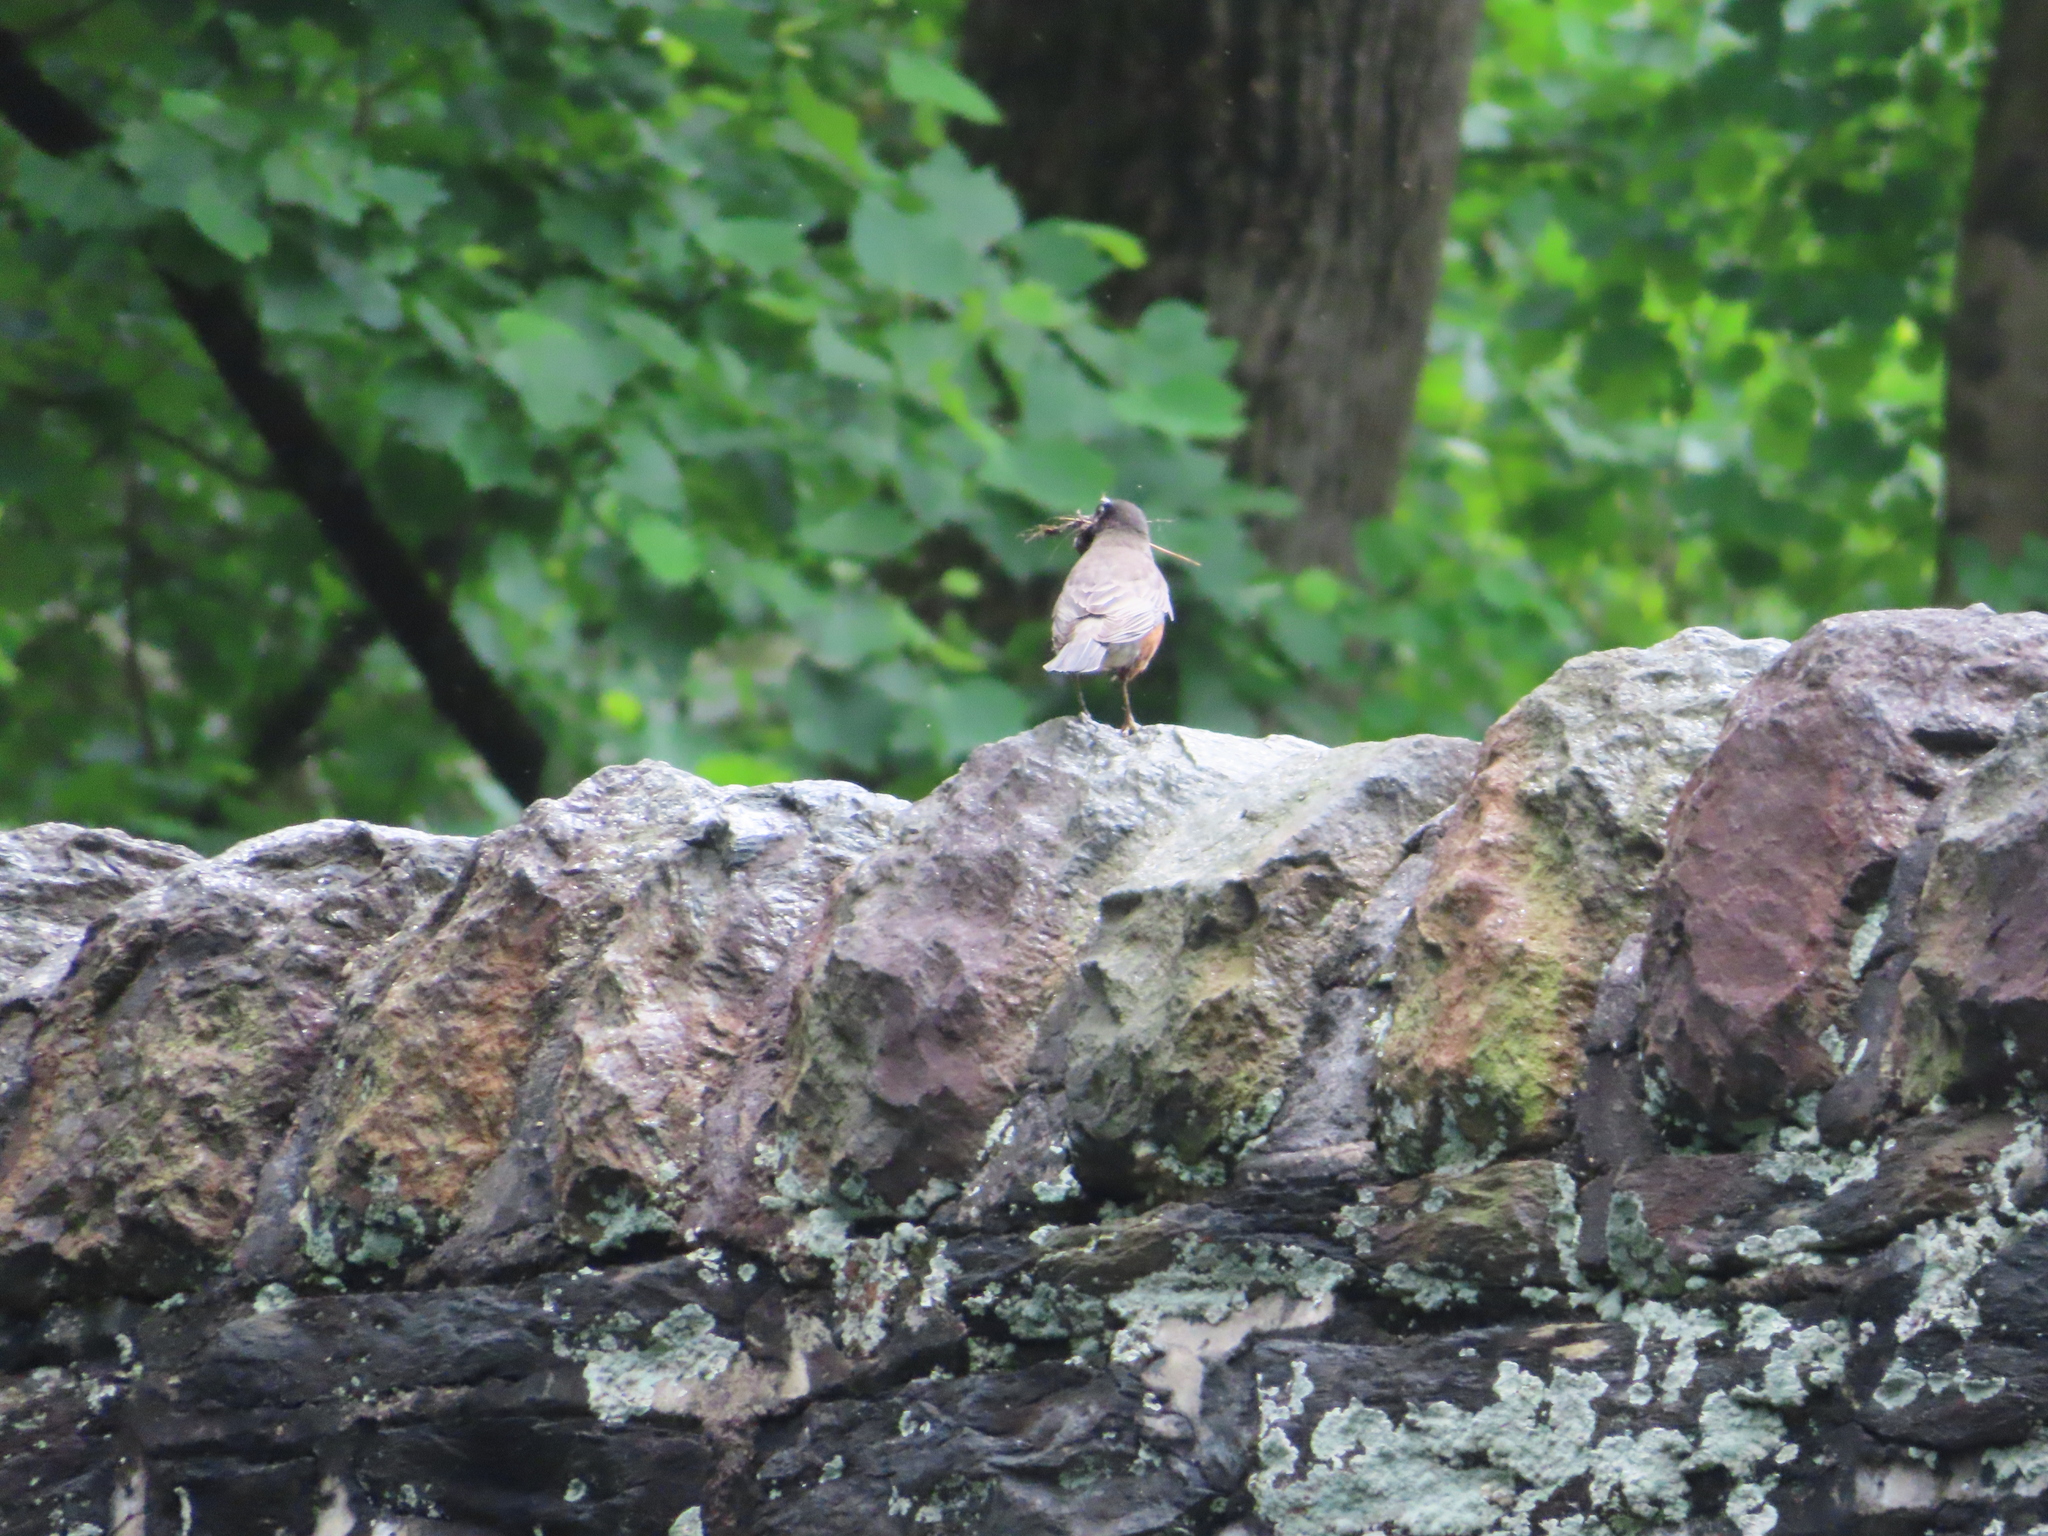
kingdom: Animalia
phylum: Chordata
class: Aves
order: Passeriformes
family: Turdidae
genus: Turdus
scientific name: Turdus migratorius
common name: American robin
